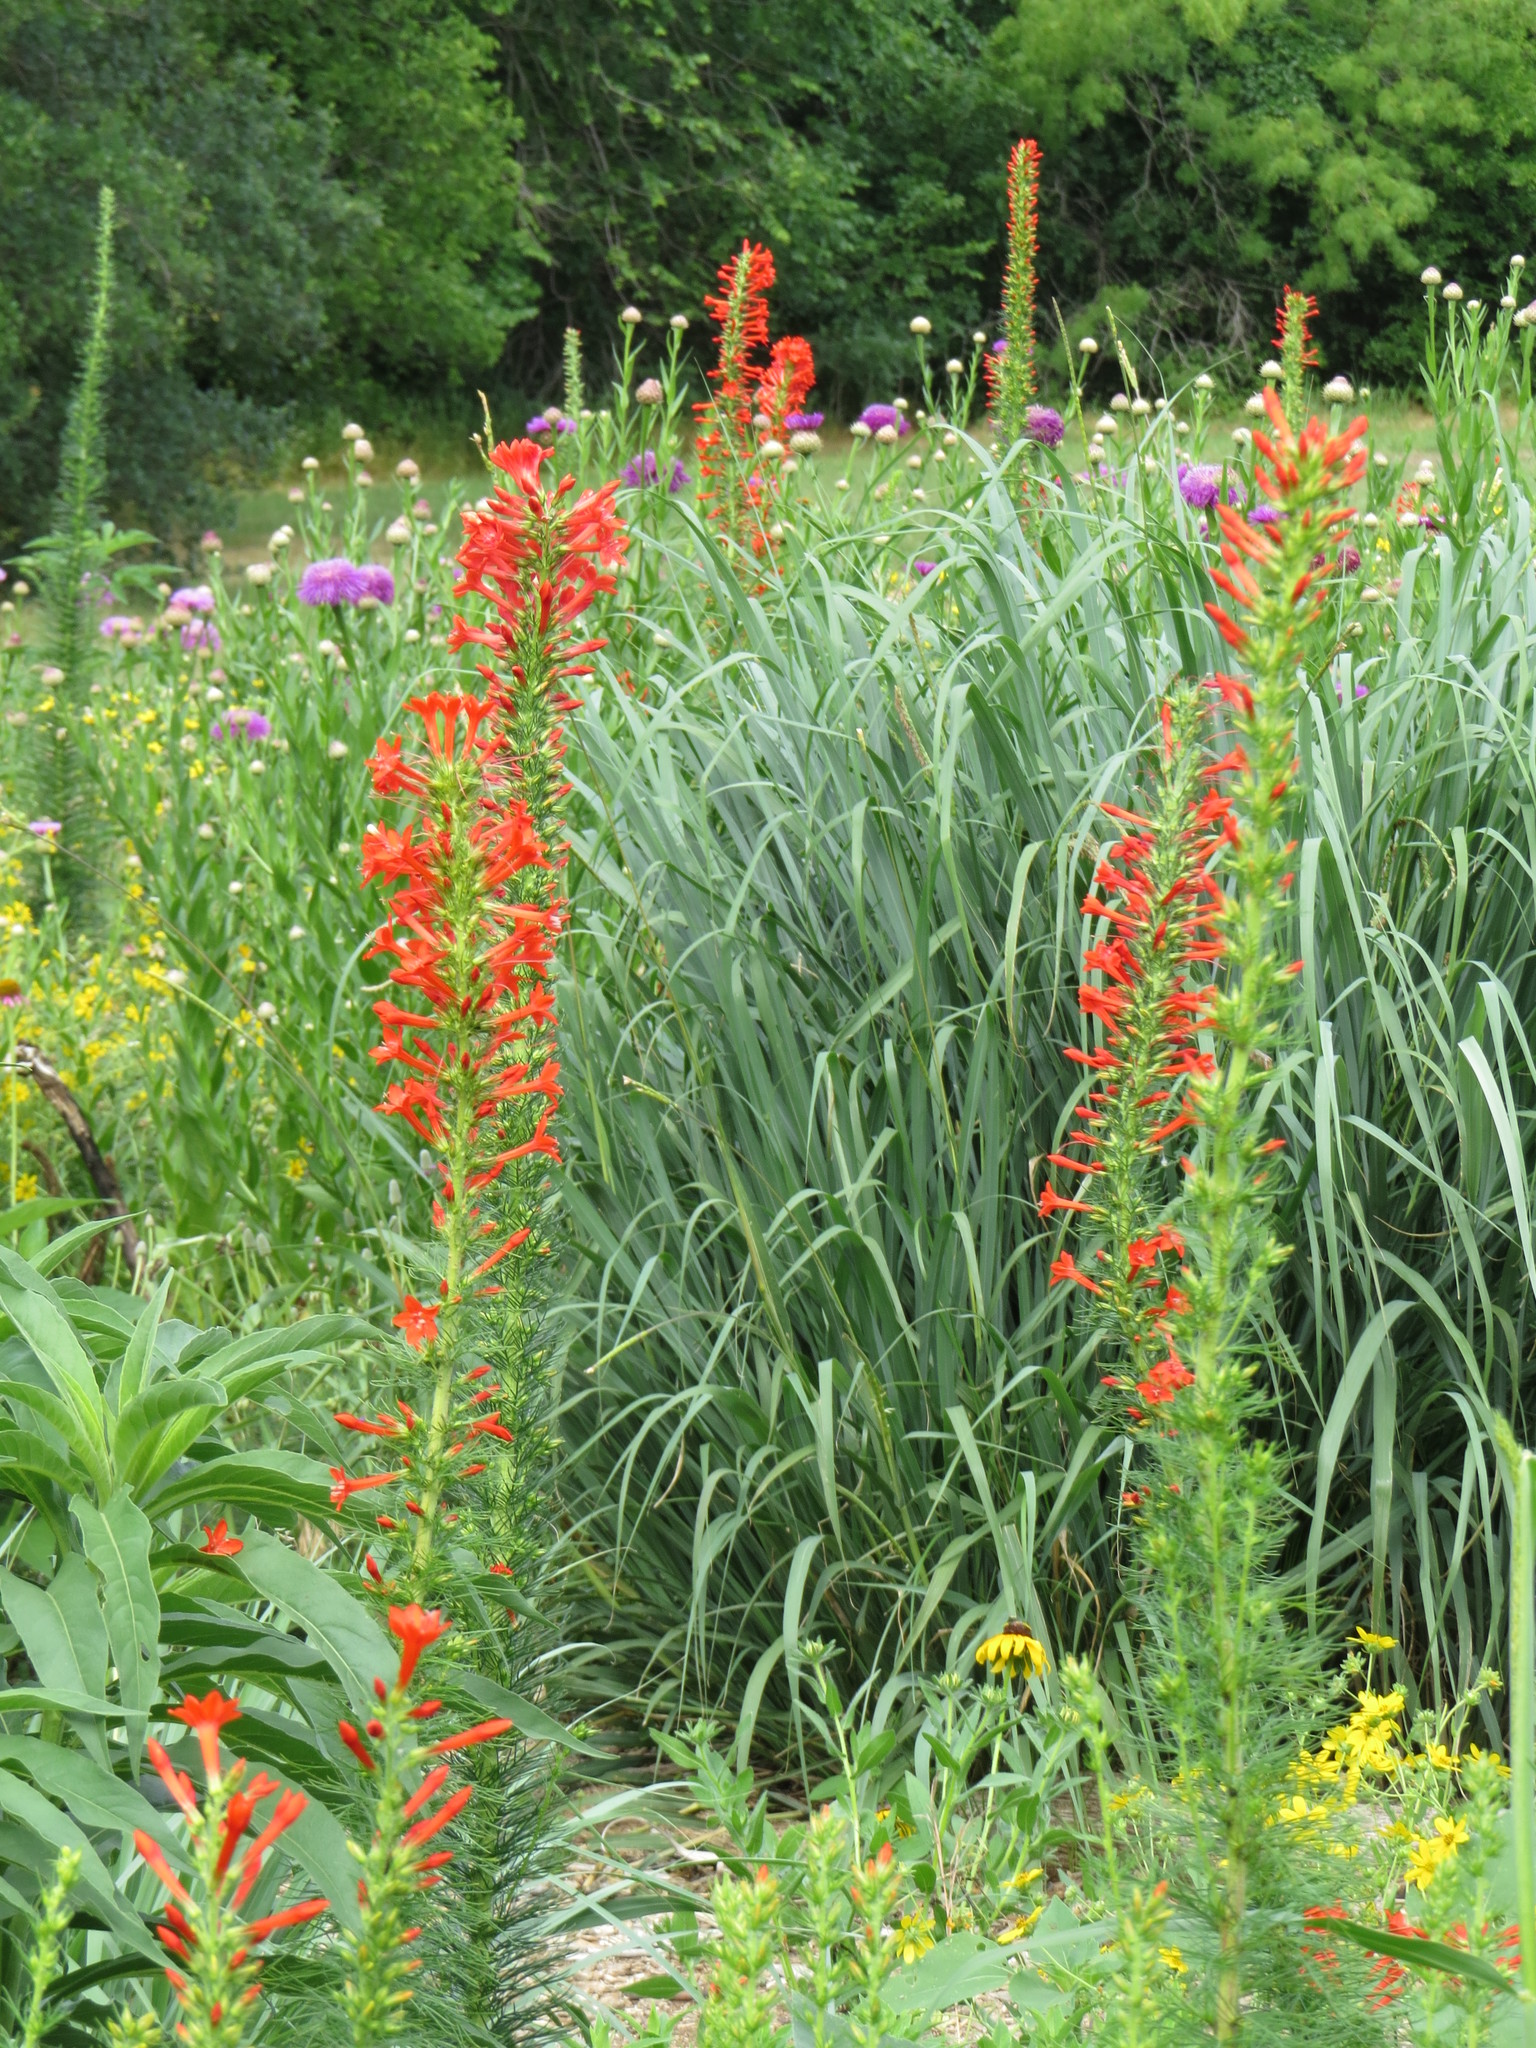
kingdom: Plantae
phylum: Tracheophyta
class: Magnoliopsida
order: Ericales
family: Polemoniaceae
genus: Ipomopsis
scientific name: Ipomopsis rubra
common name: Skyrocket
